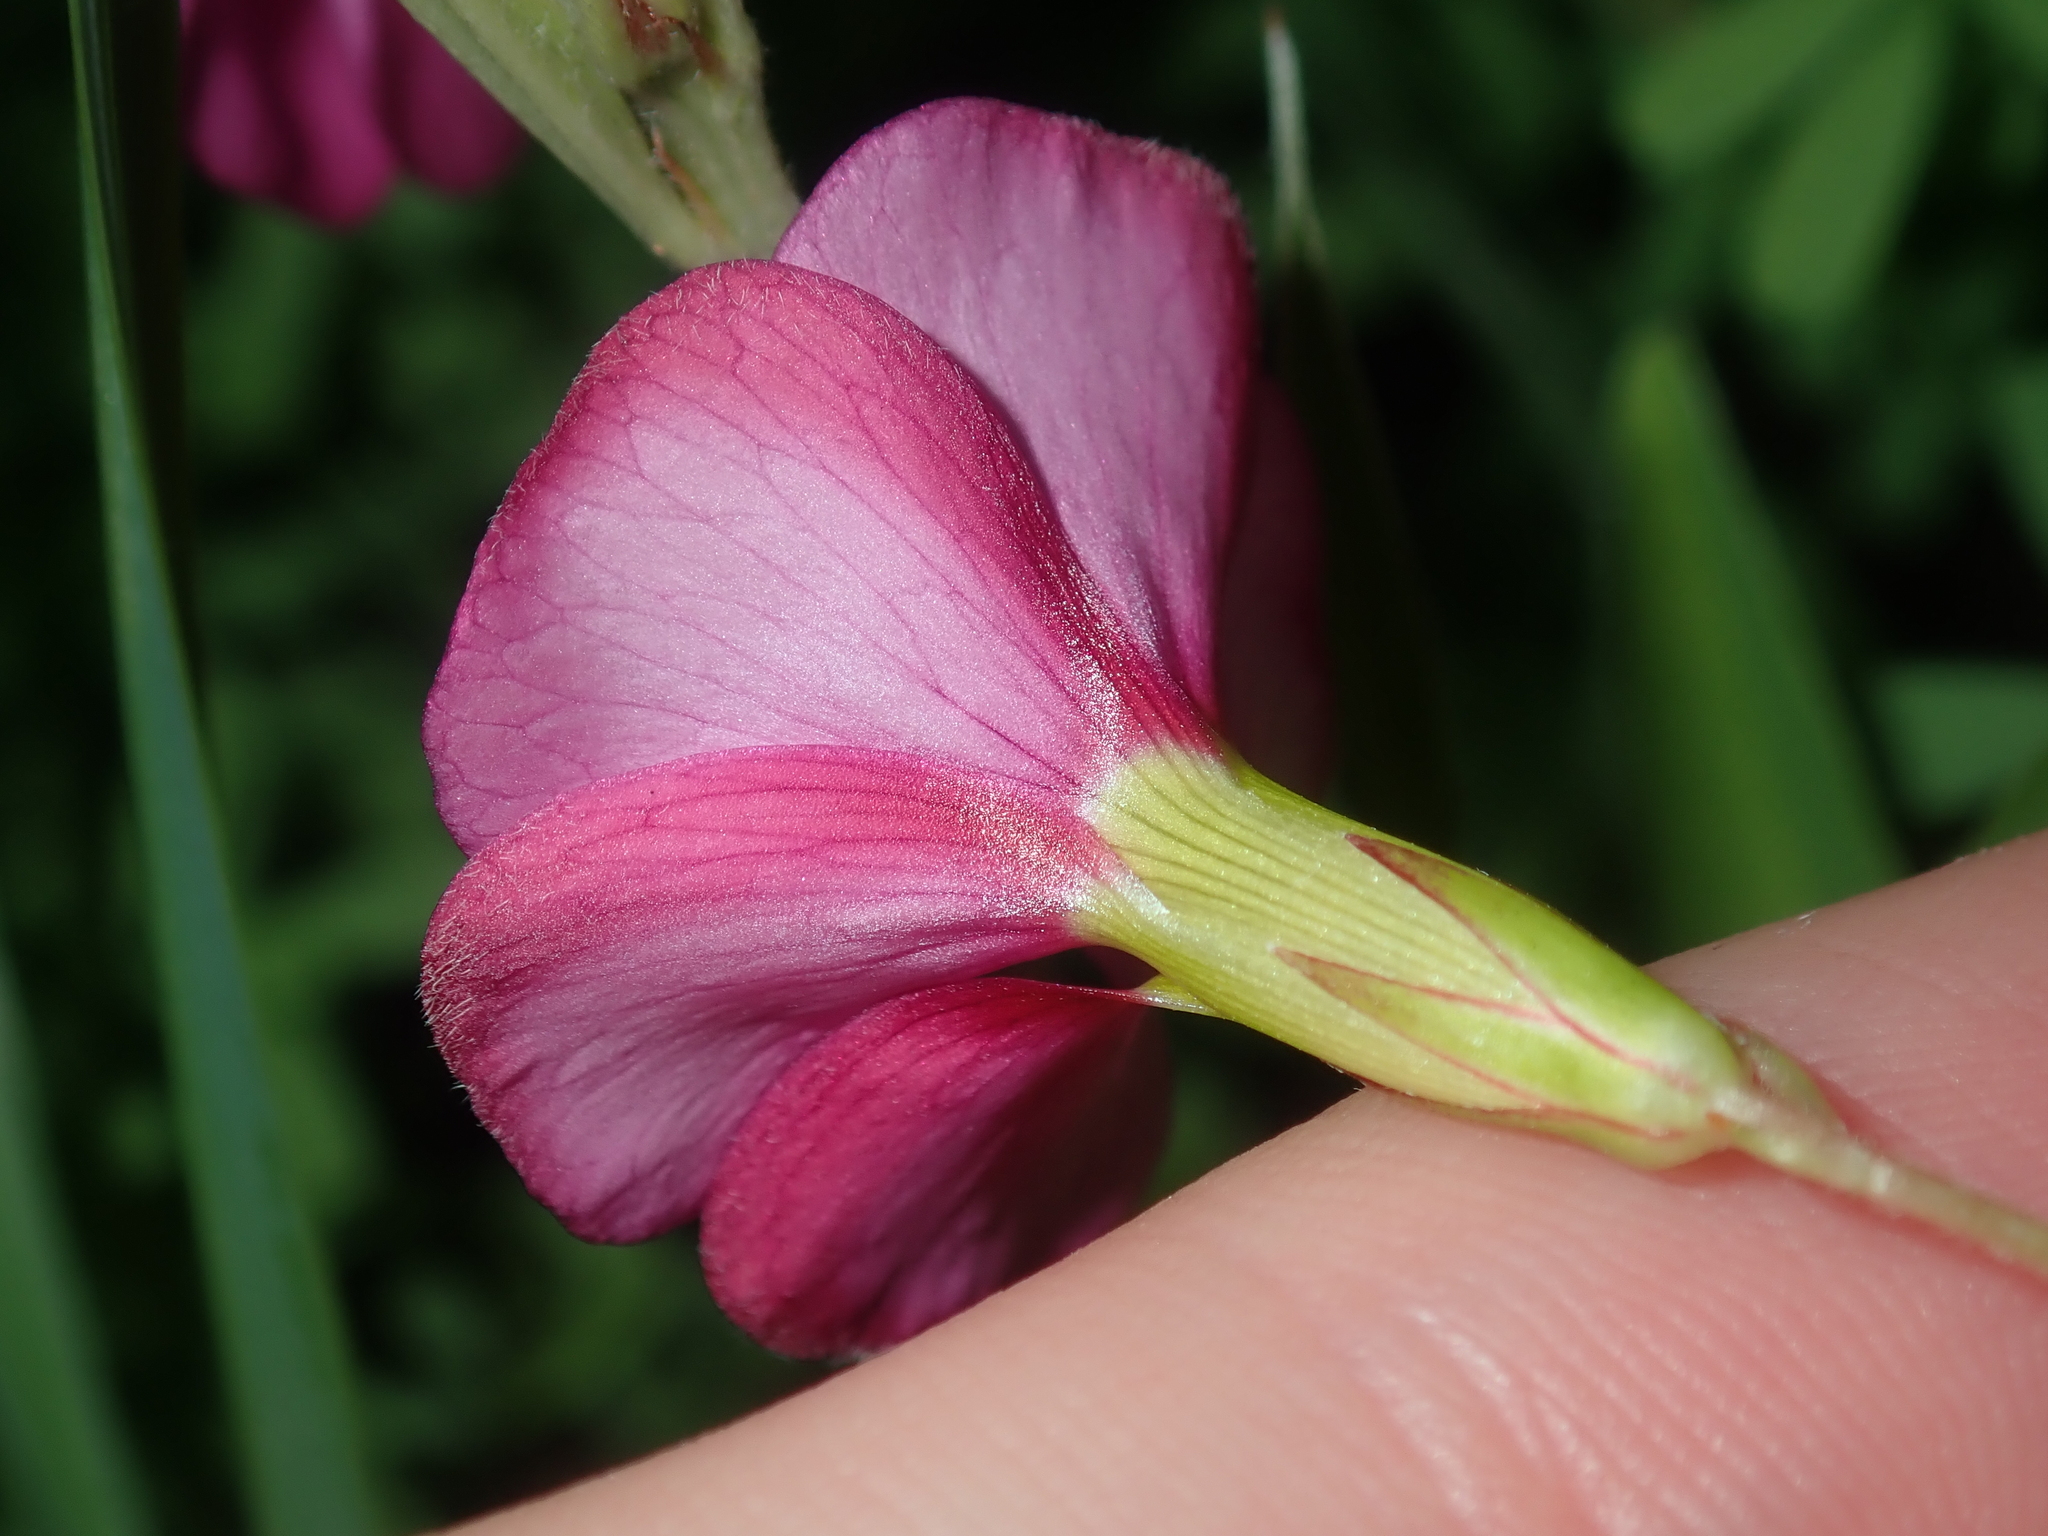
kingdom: Plantae
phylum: Tracheophyta
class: Magnoliopsida
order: Oxalidales
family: Oxalidaceae
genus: Oxalis
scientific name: Oxalis glabra
